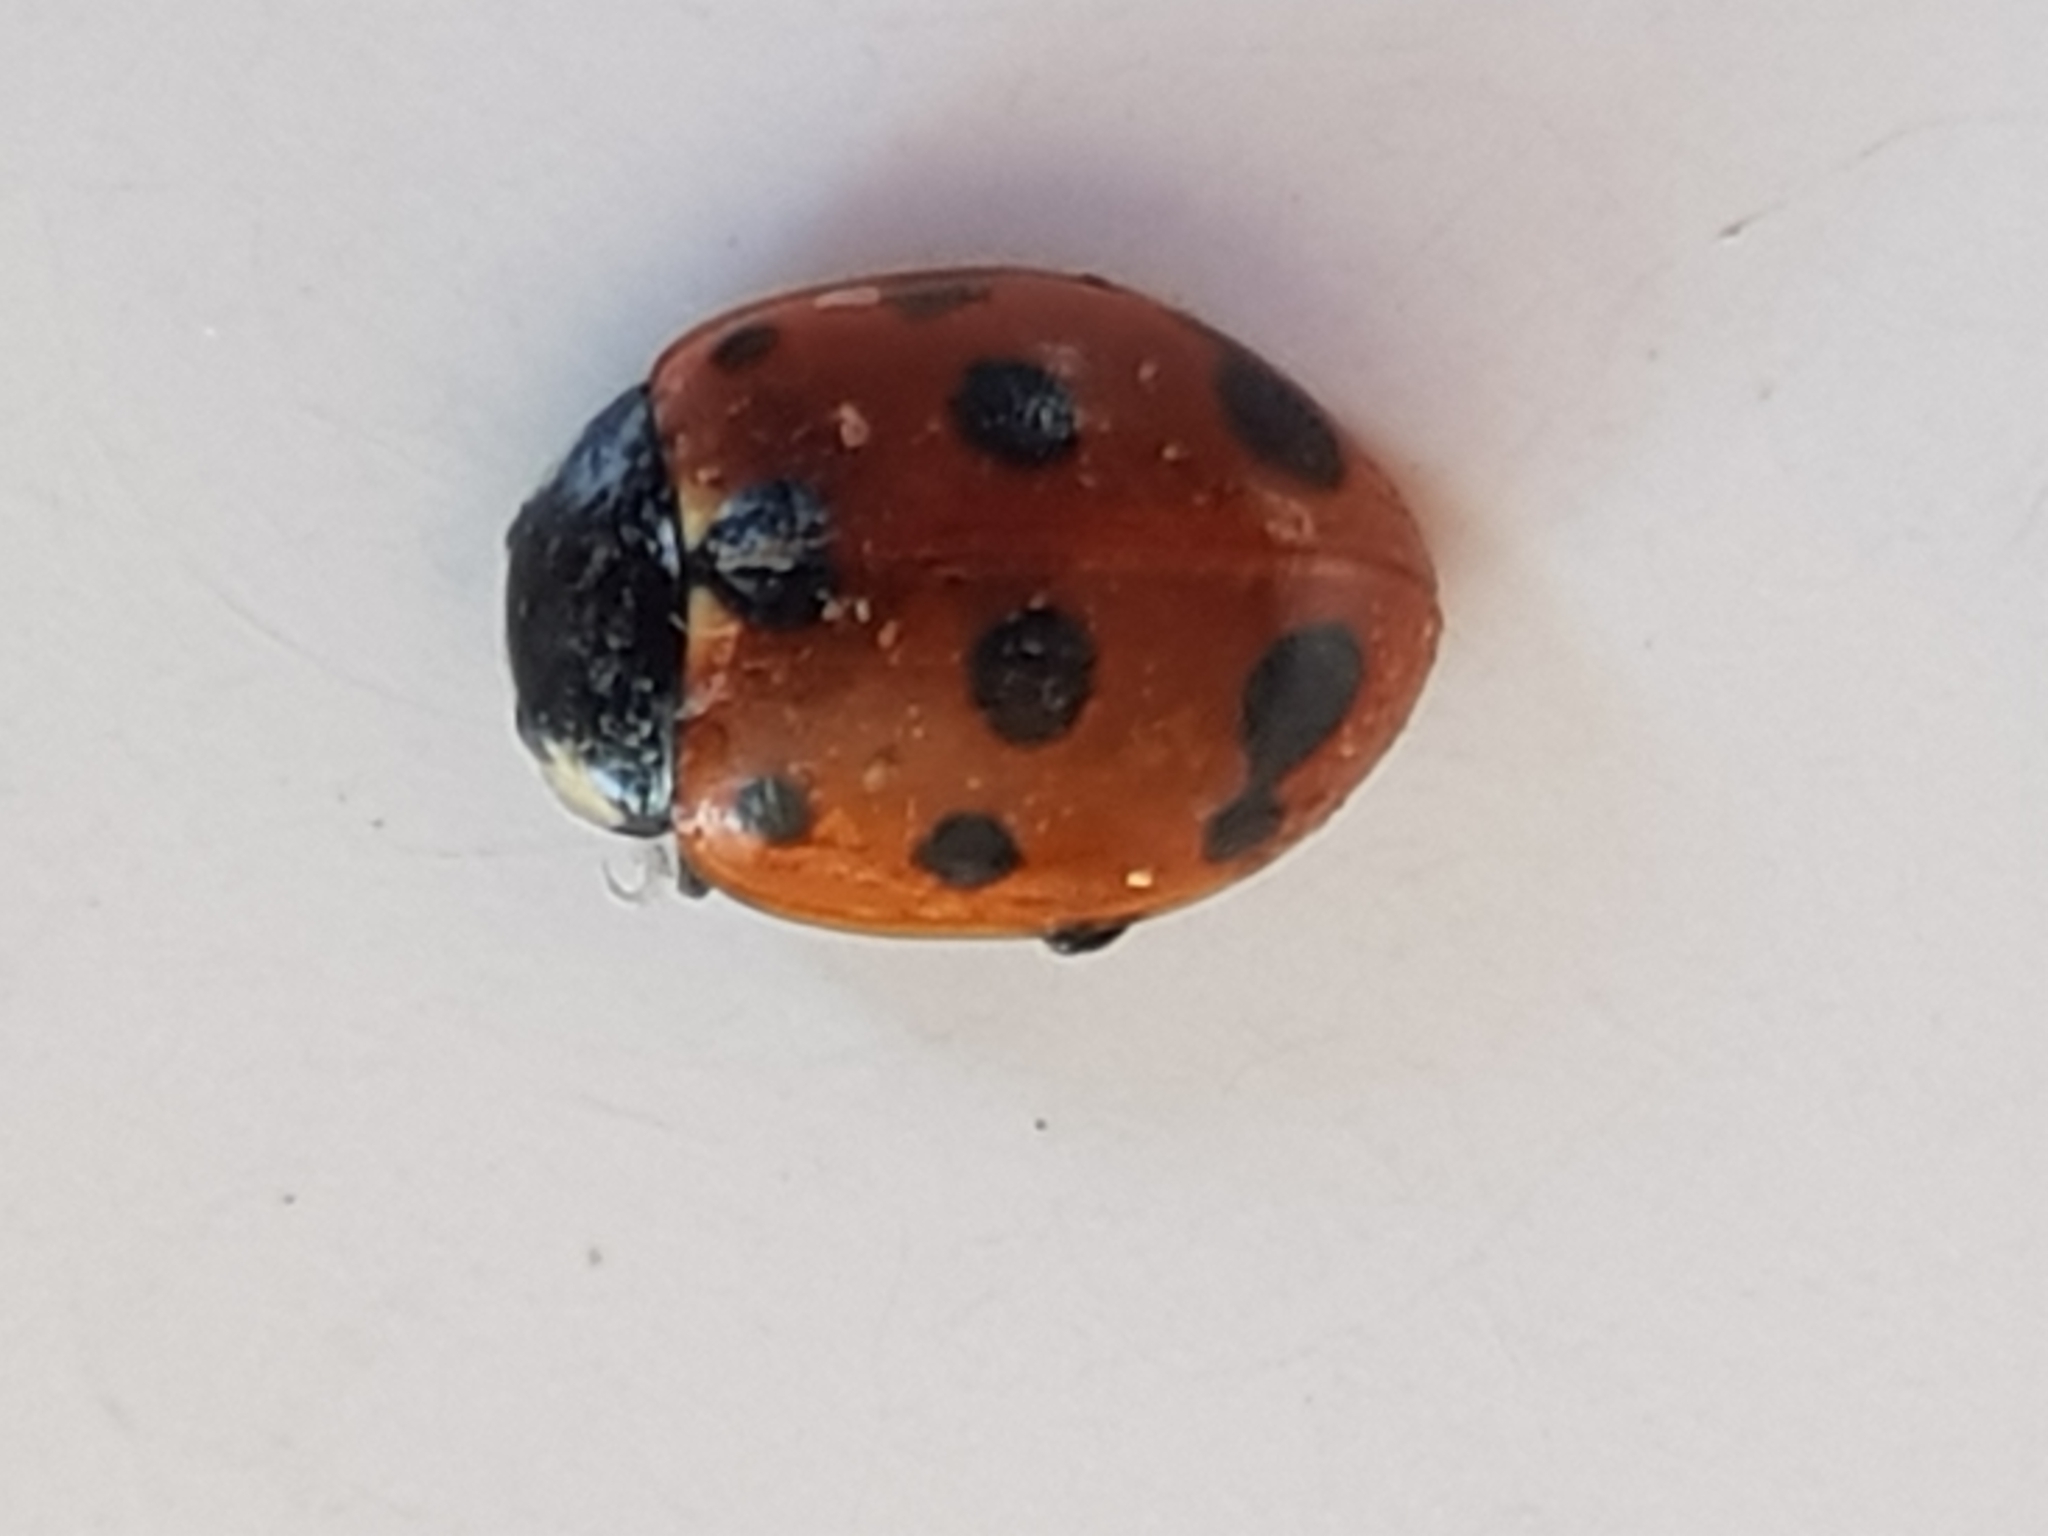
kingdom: Animalia
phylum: Arthropoda
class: Insecta
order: Coleoptera
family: Coccinellidae
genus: Coccinella
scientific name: Coccinella undecimpunctata
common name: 11-spot ladybird
